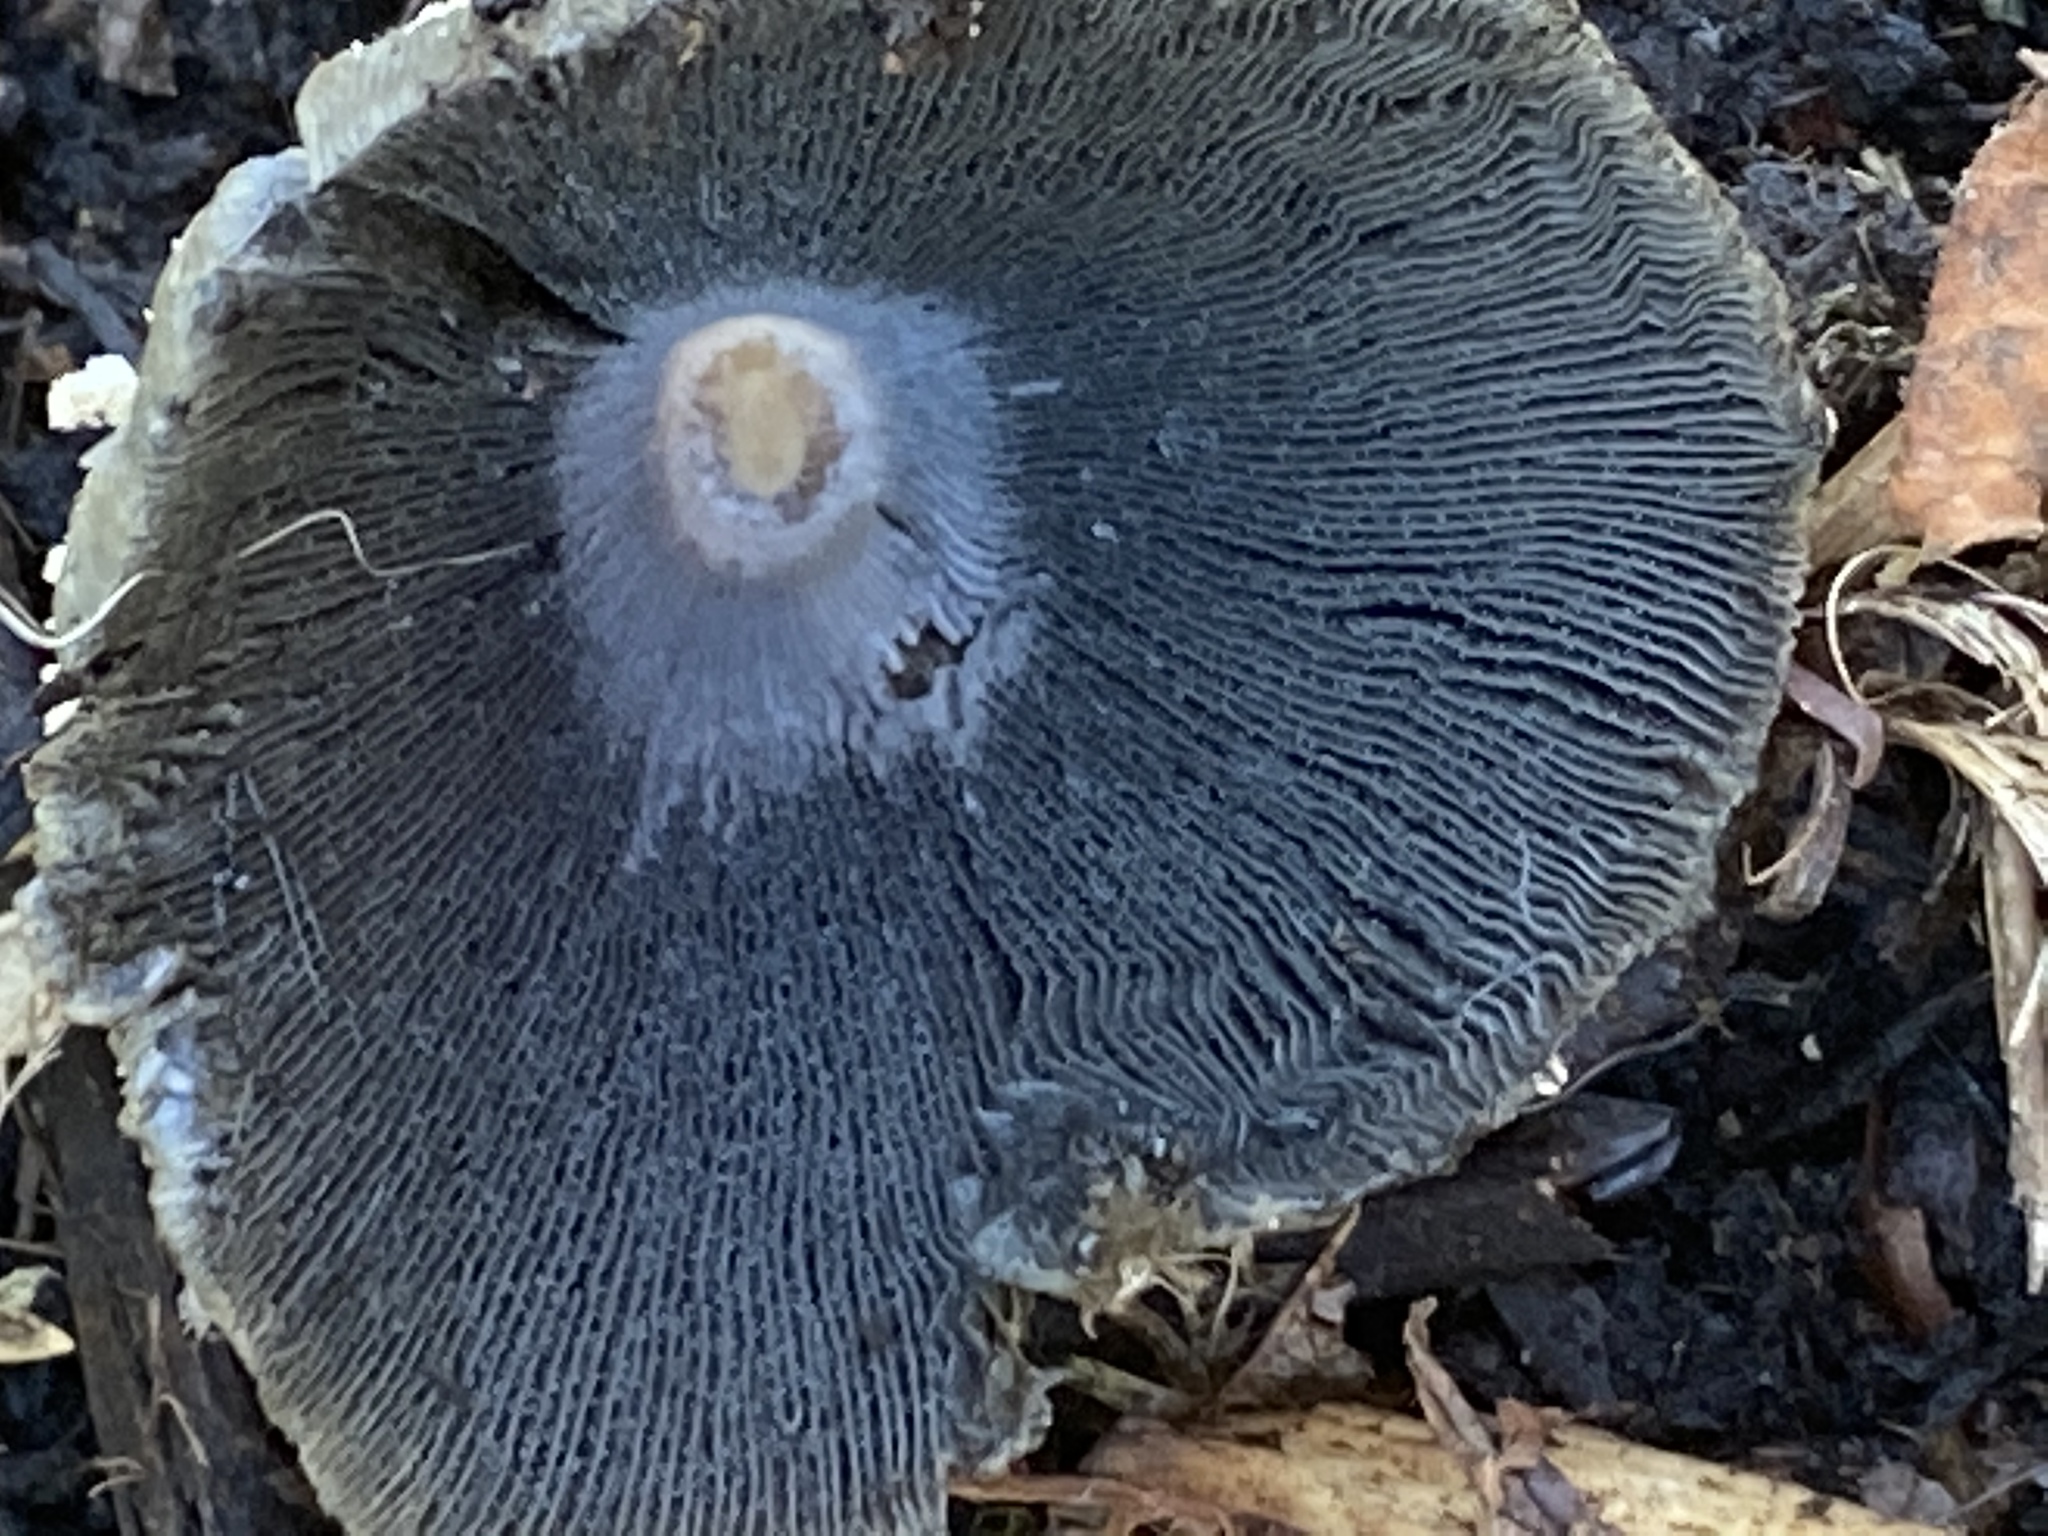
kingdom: Fungi
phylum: Basidiomycota
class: Agaricomycetes
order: Agaricales
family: Psathyrellaceae
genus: Coprinellus
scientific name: Coprinellus flocculosus
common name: Flocculose inkcap
